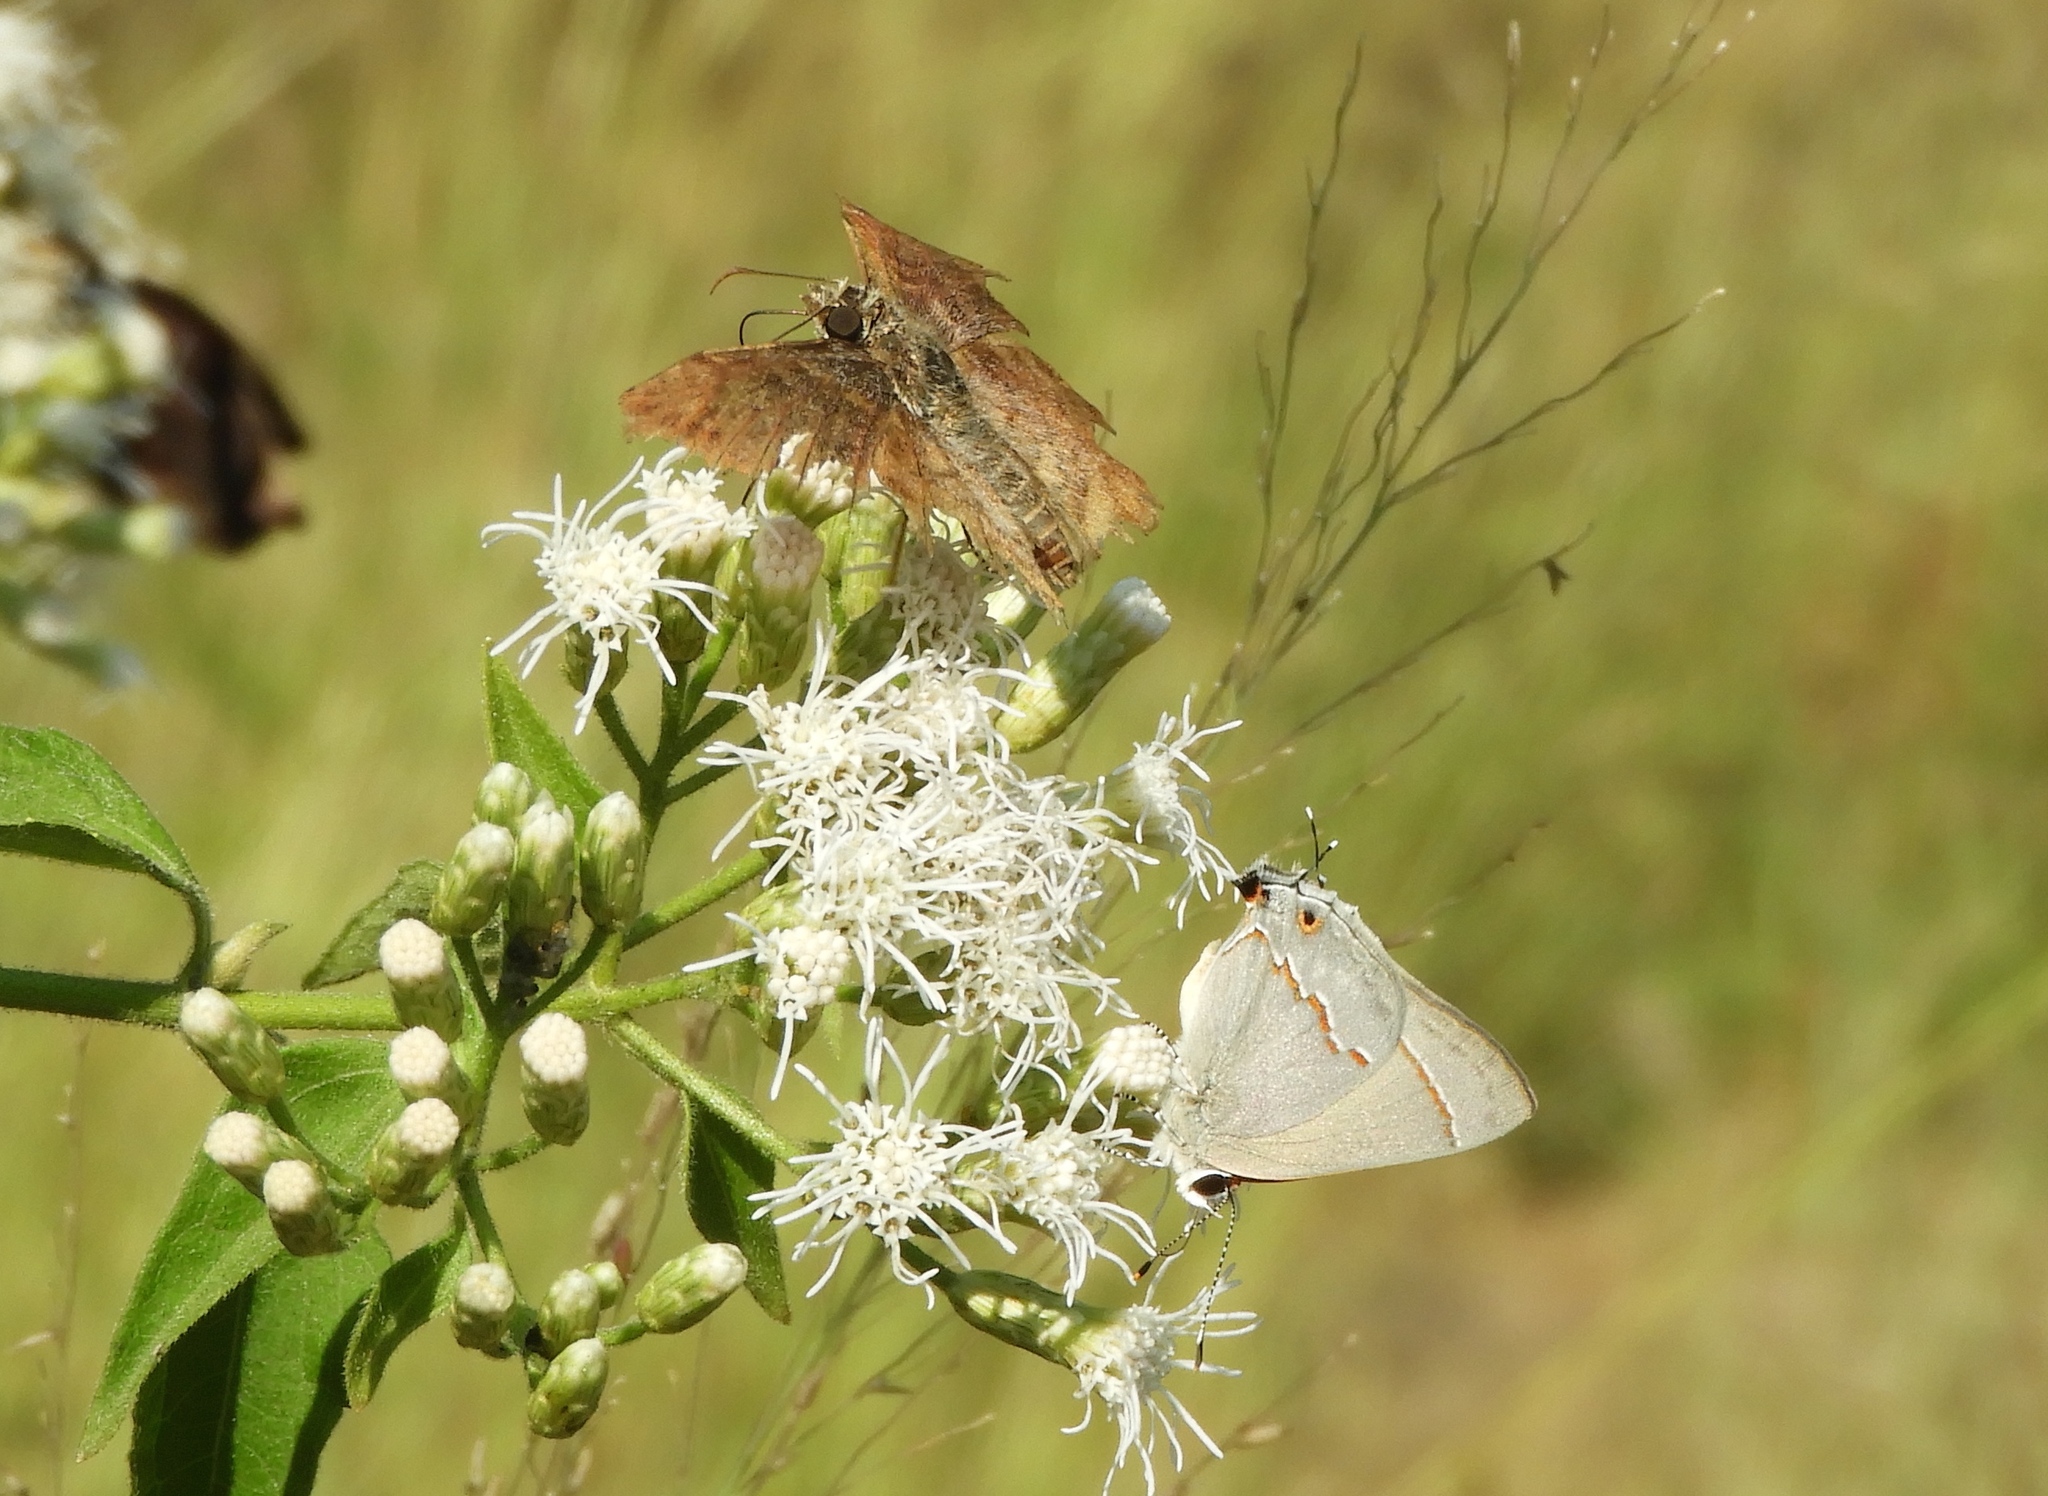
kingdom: Animalia
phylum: Arthropoda
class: Insecta
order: Lepidoptera
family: Lycaenidae
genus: Thecla
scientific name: Thecla bebrycia
